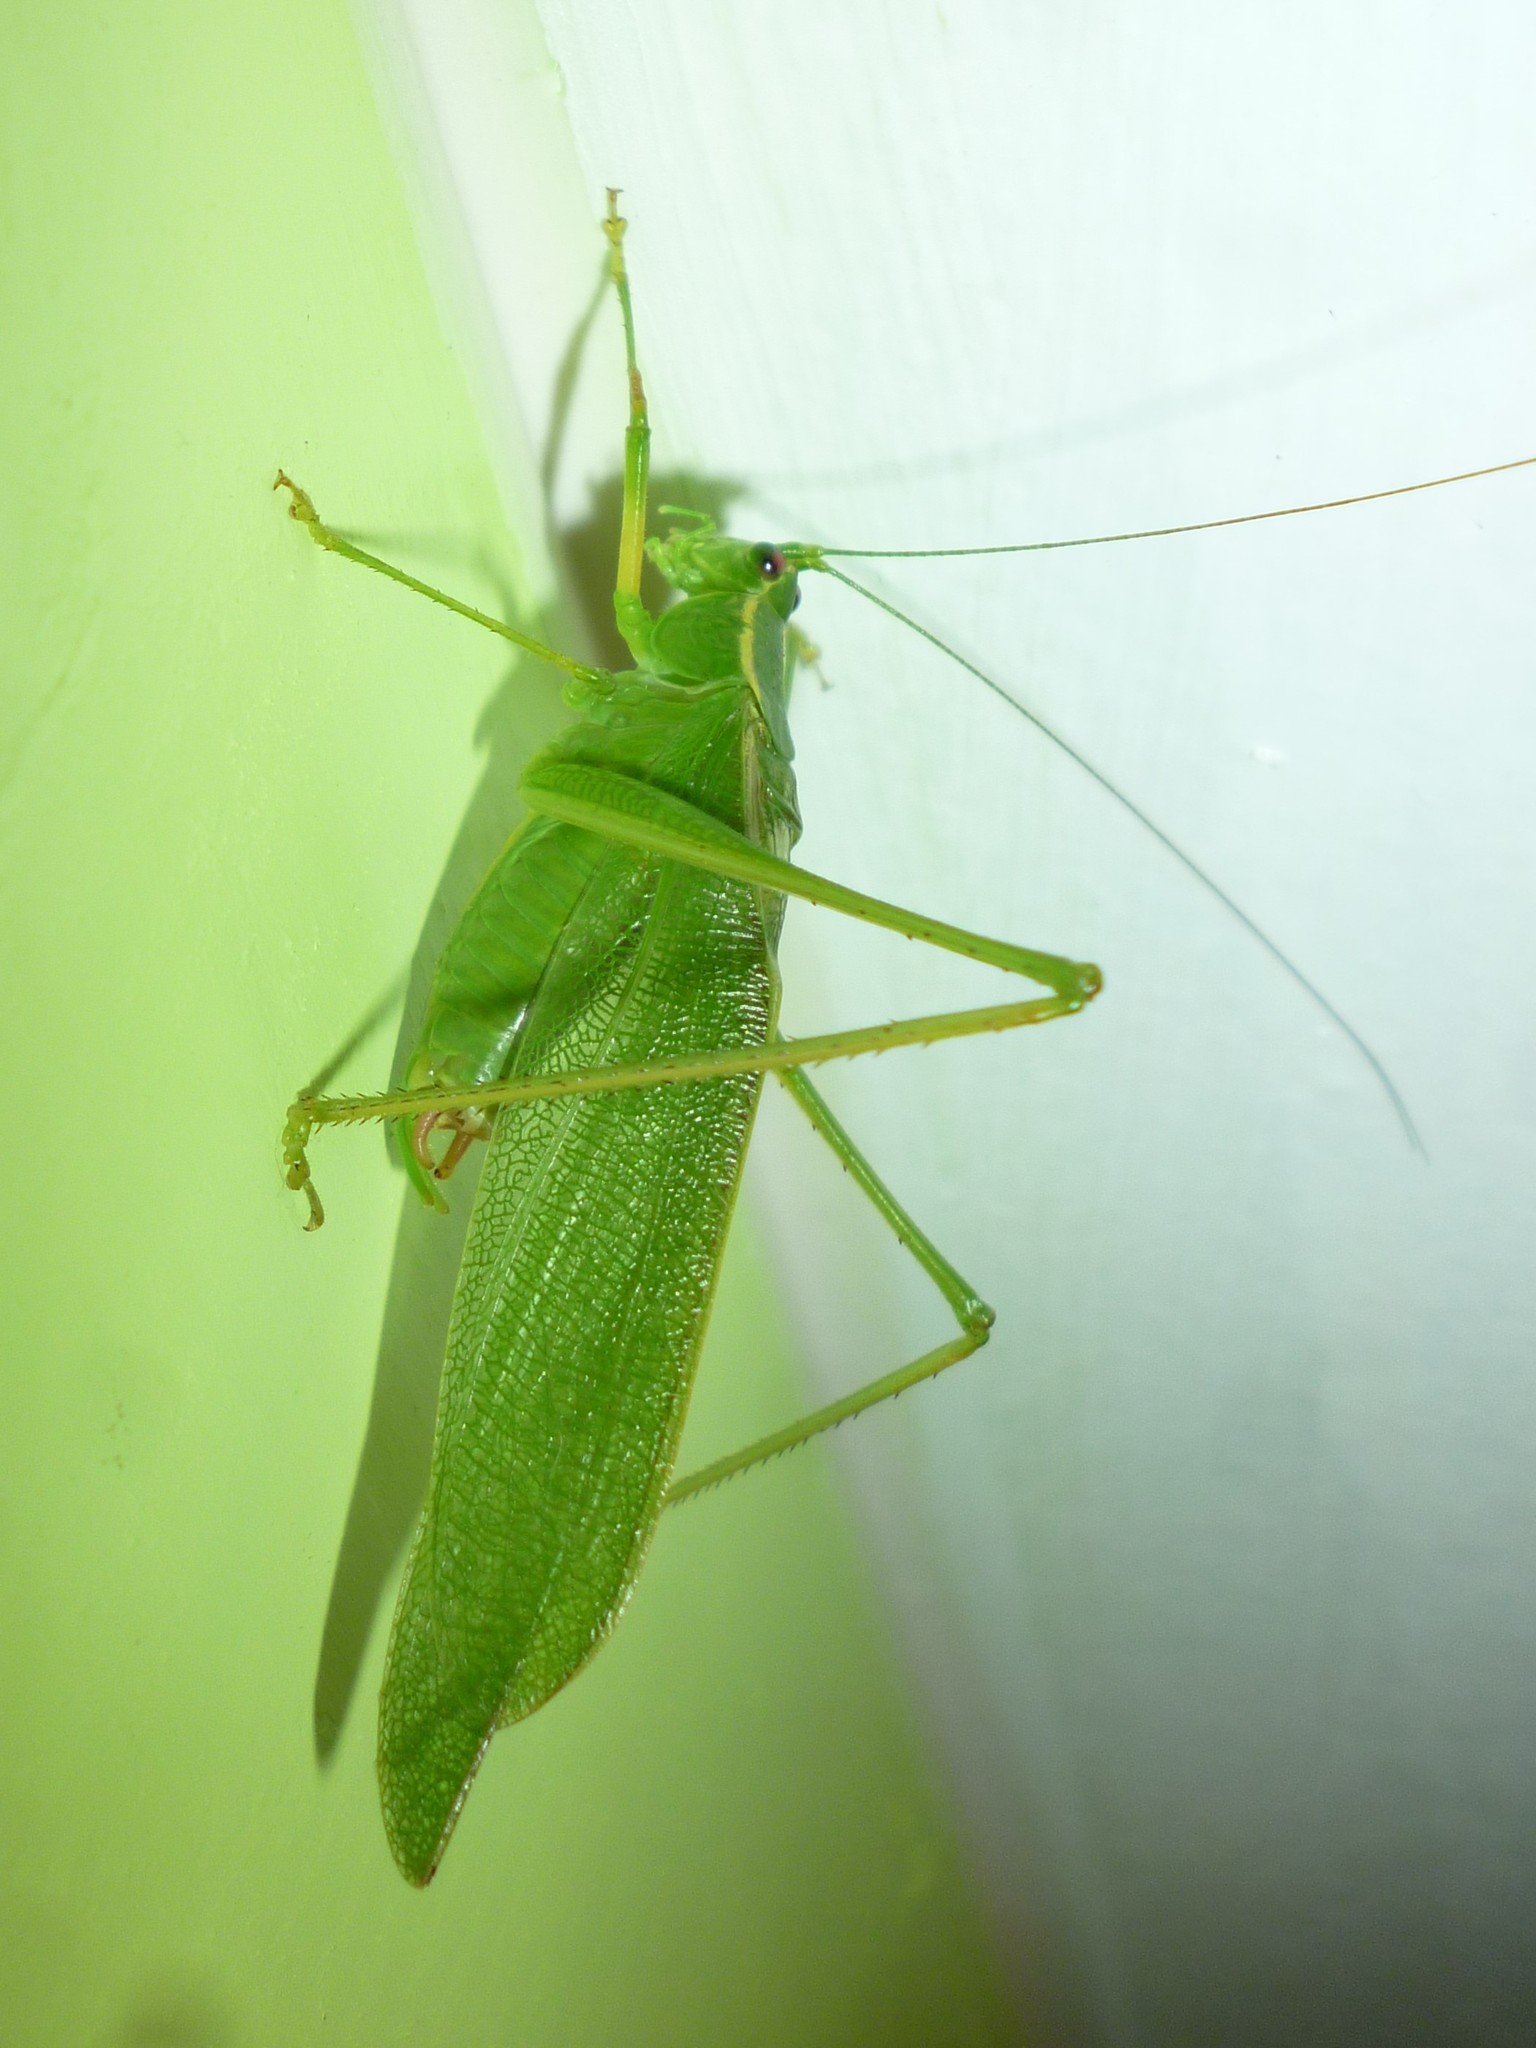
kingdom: Animalia
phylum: Arthropoda
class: Insecta
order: Orthoptera
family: Tettigoniidae
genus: Scudderia
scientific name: Scudderia septentrionalis
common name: Northern bush-katydid
